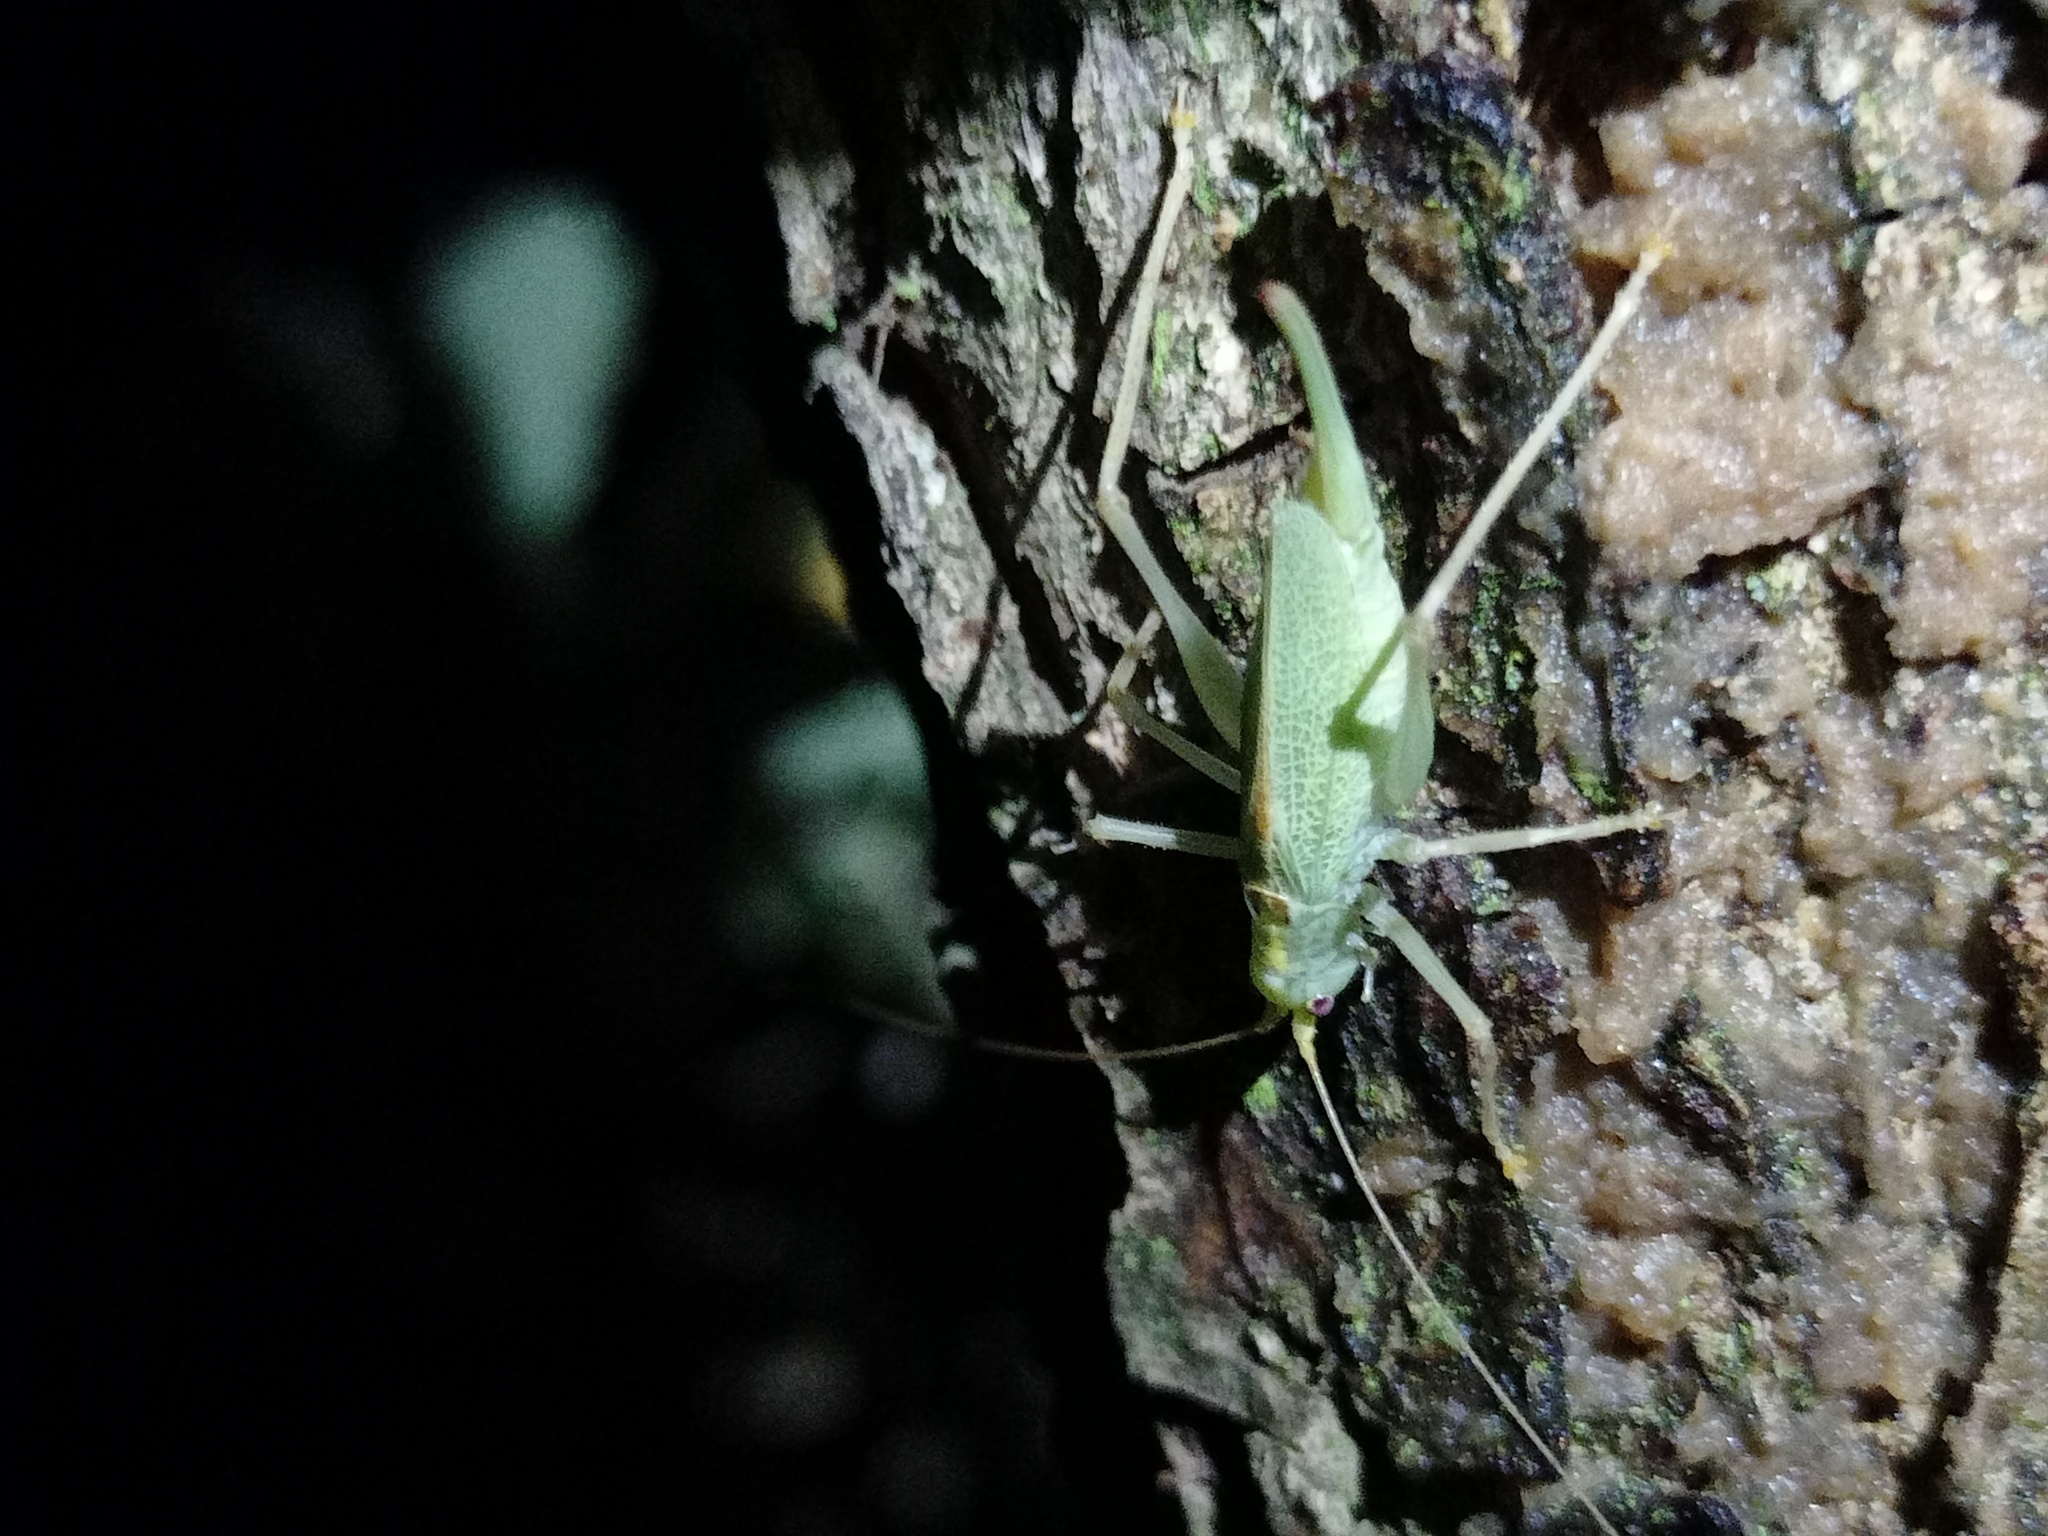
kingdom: Animalia
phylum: Arthropoda
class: Insecta
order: Orthoptera
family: Tettigoniidae
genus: Meconema
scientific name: Meconema thalassinum
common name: Oak bush-cricket
